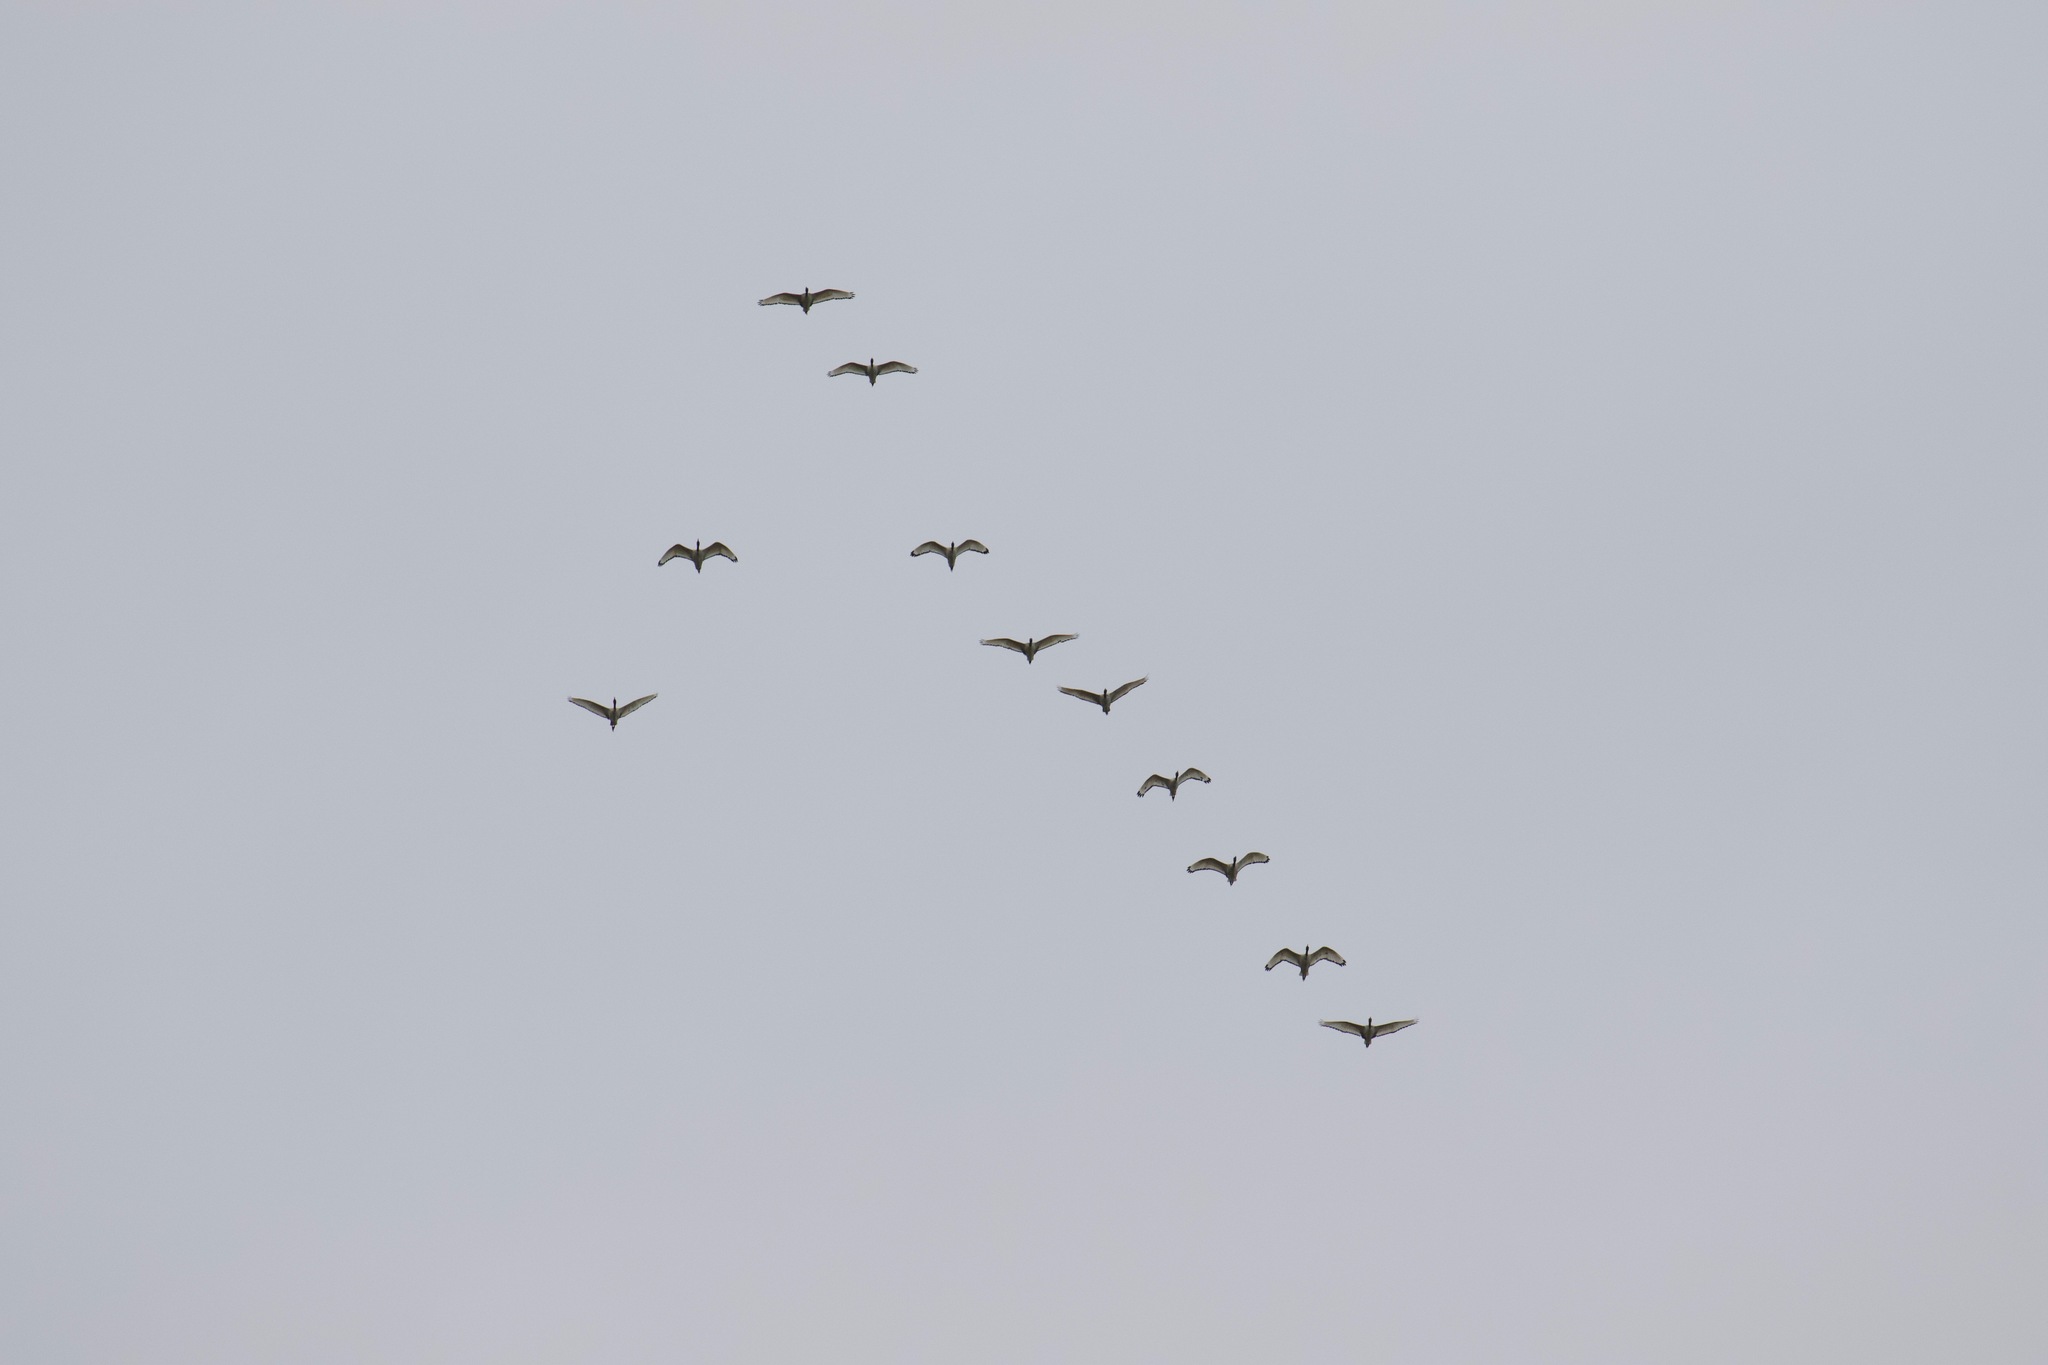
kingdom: Animalia
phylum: Chordata
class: Aves
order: Pelecaniformes
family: Threskiornithidae
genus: Threskiornis
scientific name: Threskiornis aethiopicus
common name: Sacred ibis
